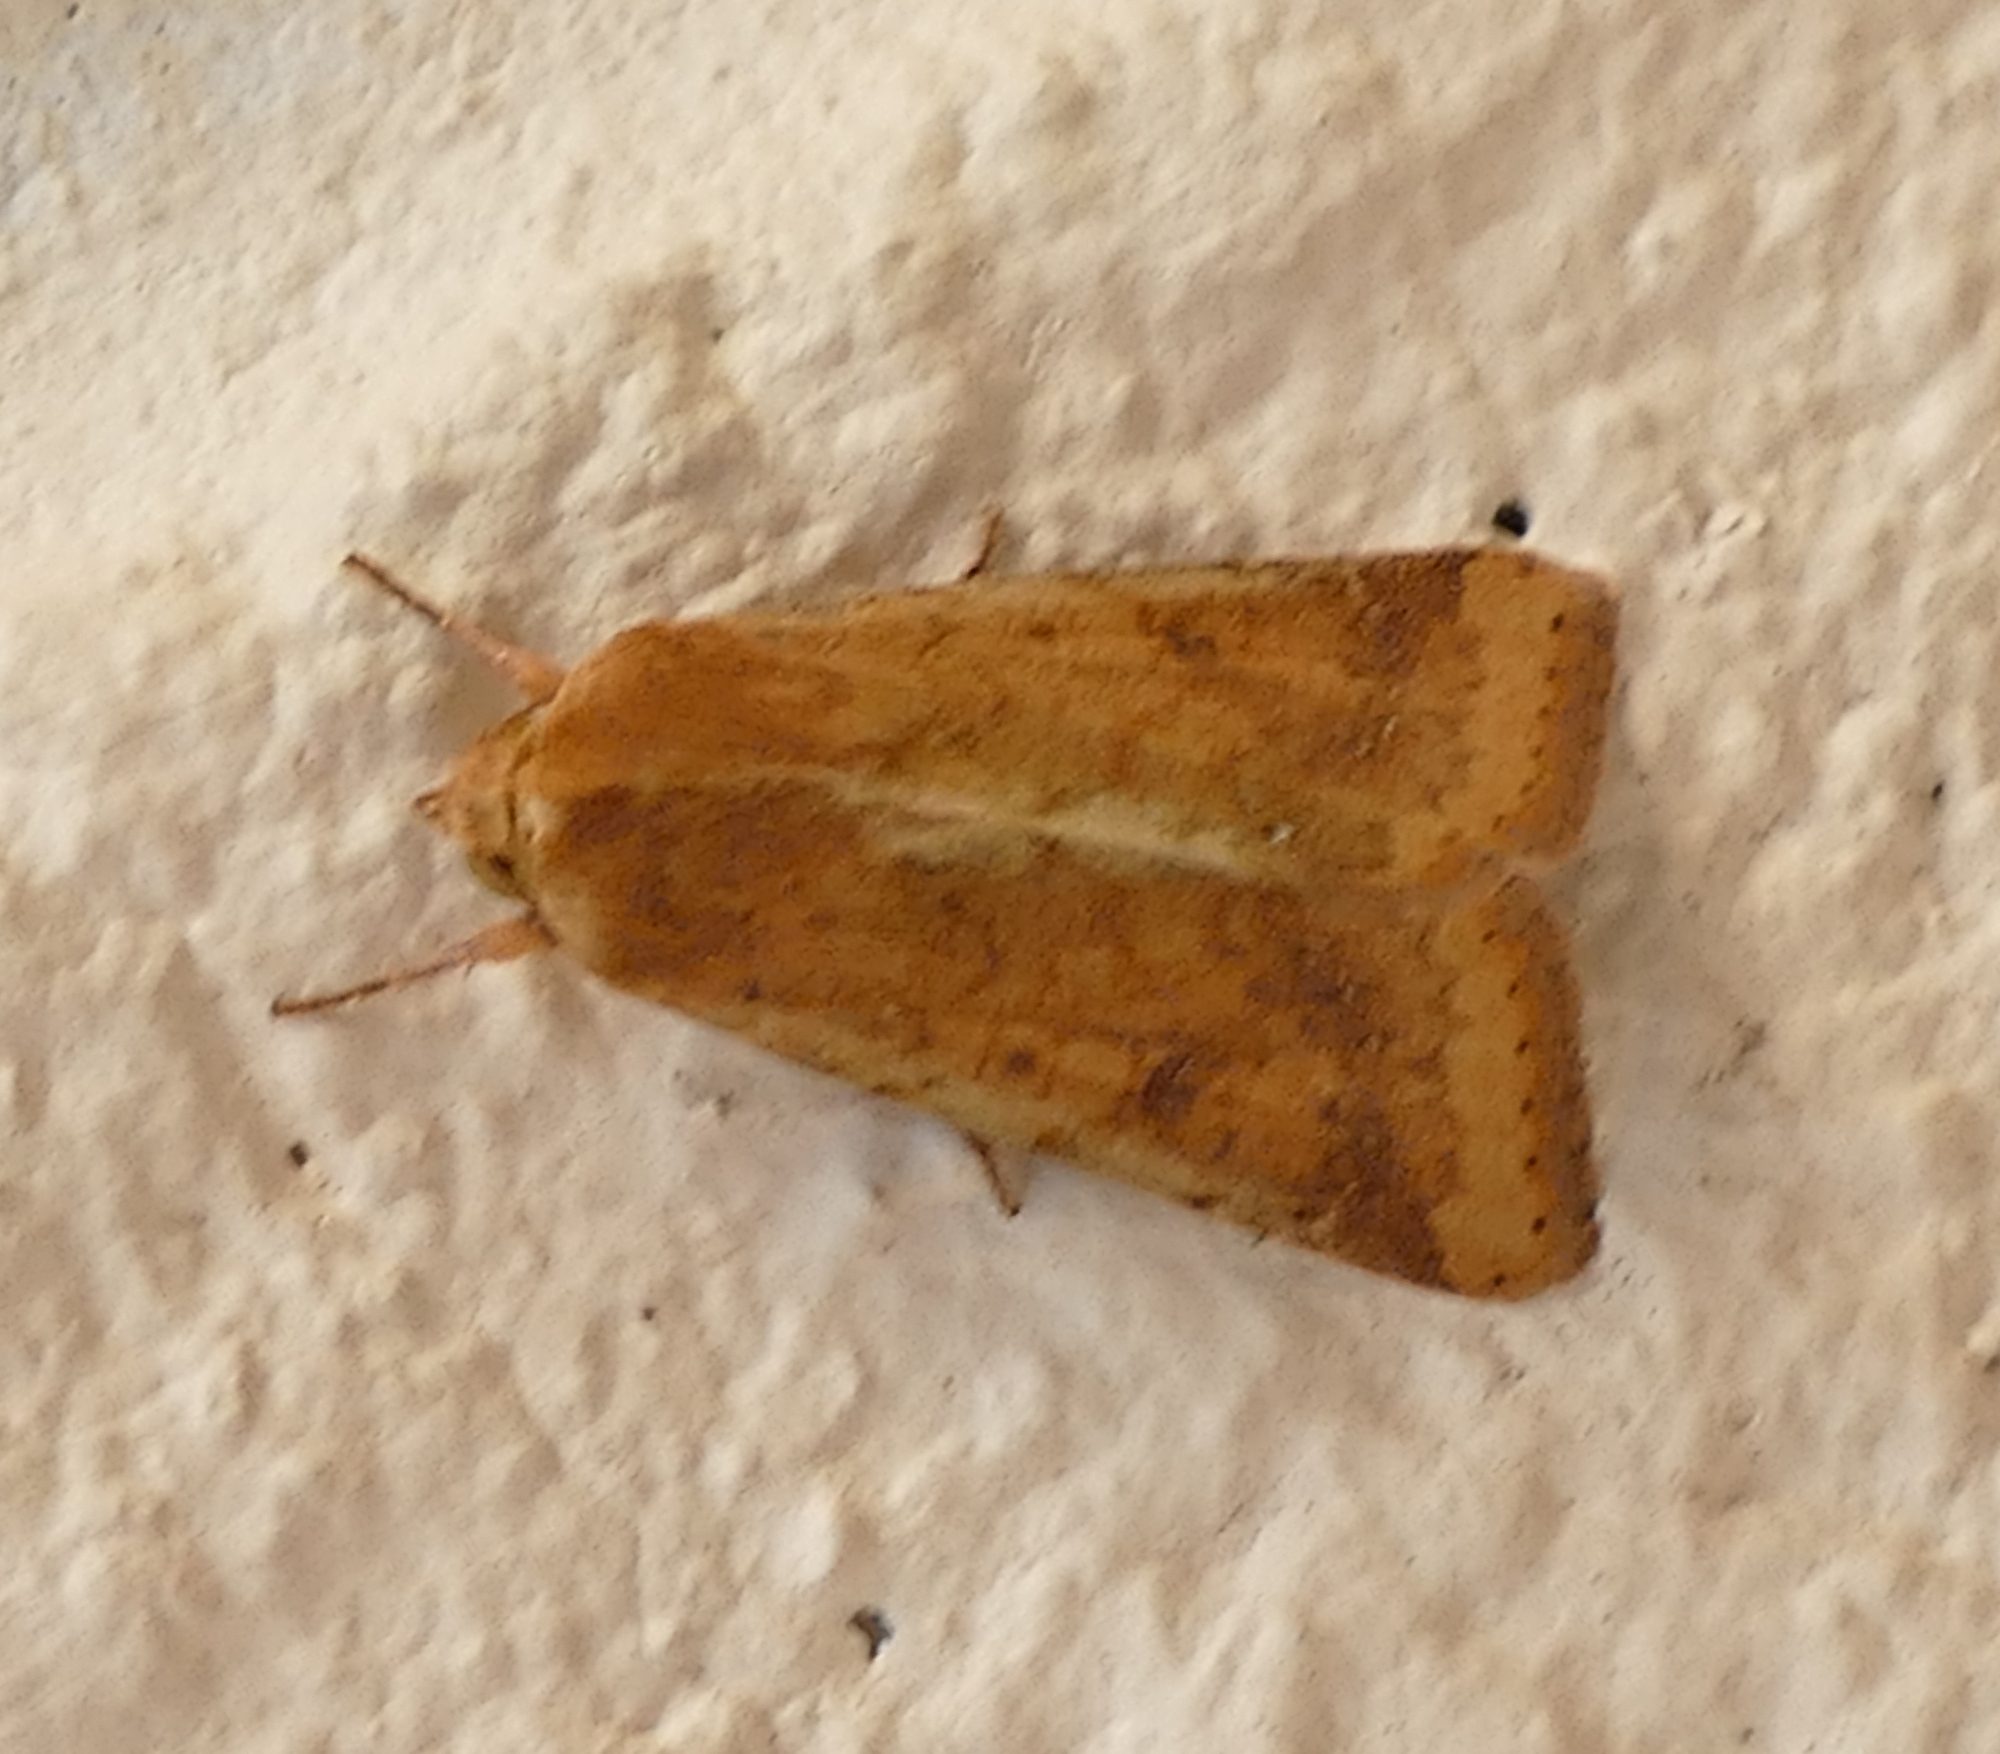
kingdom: Animalia
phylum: Arthropoda
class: Insecta
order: Lepidoptera
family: Noctuidae
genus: Helicoverpa
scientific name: Helicoverpa zea
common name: Bollworm
